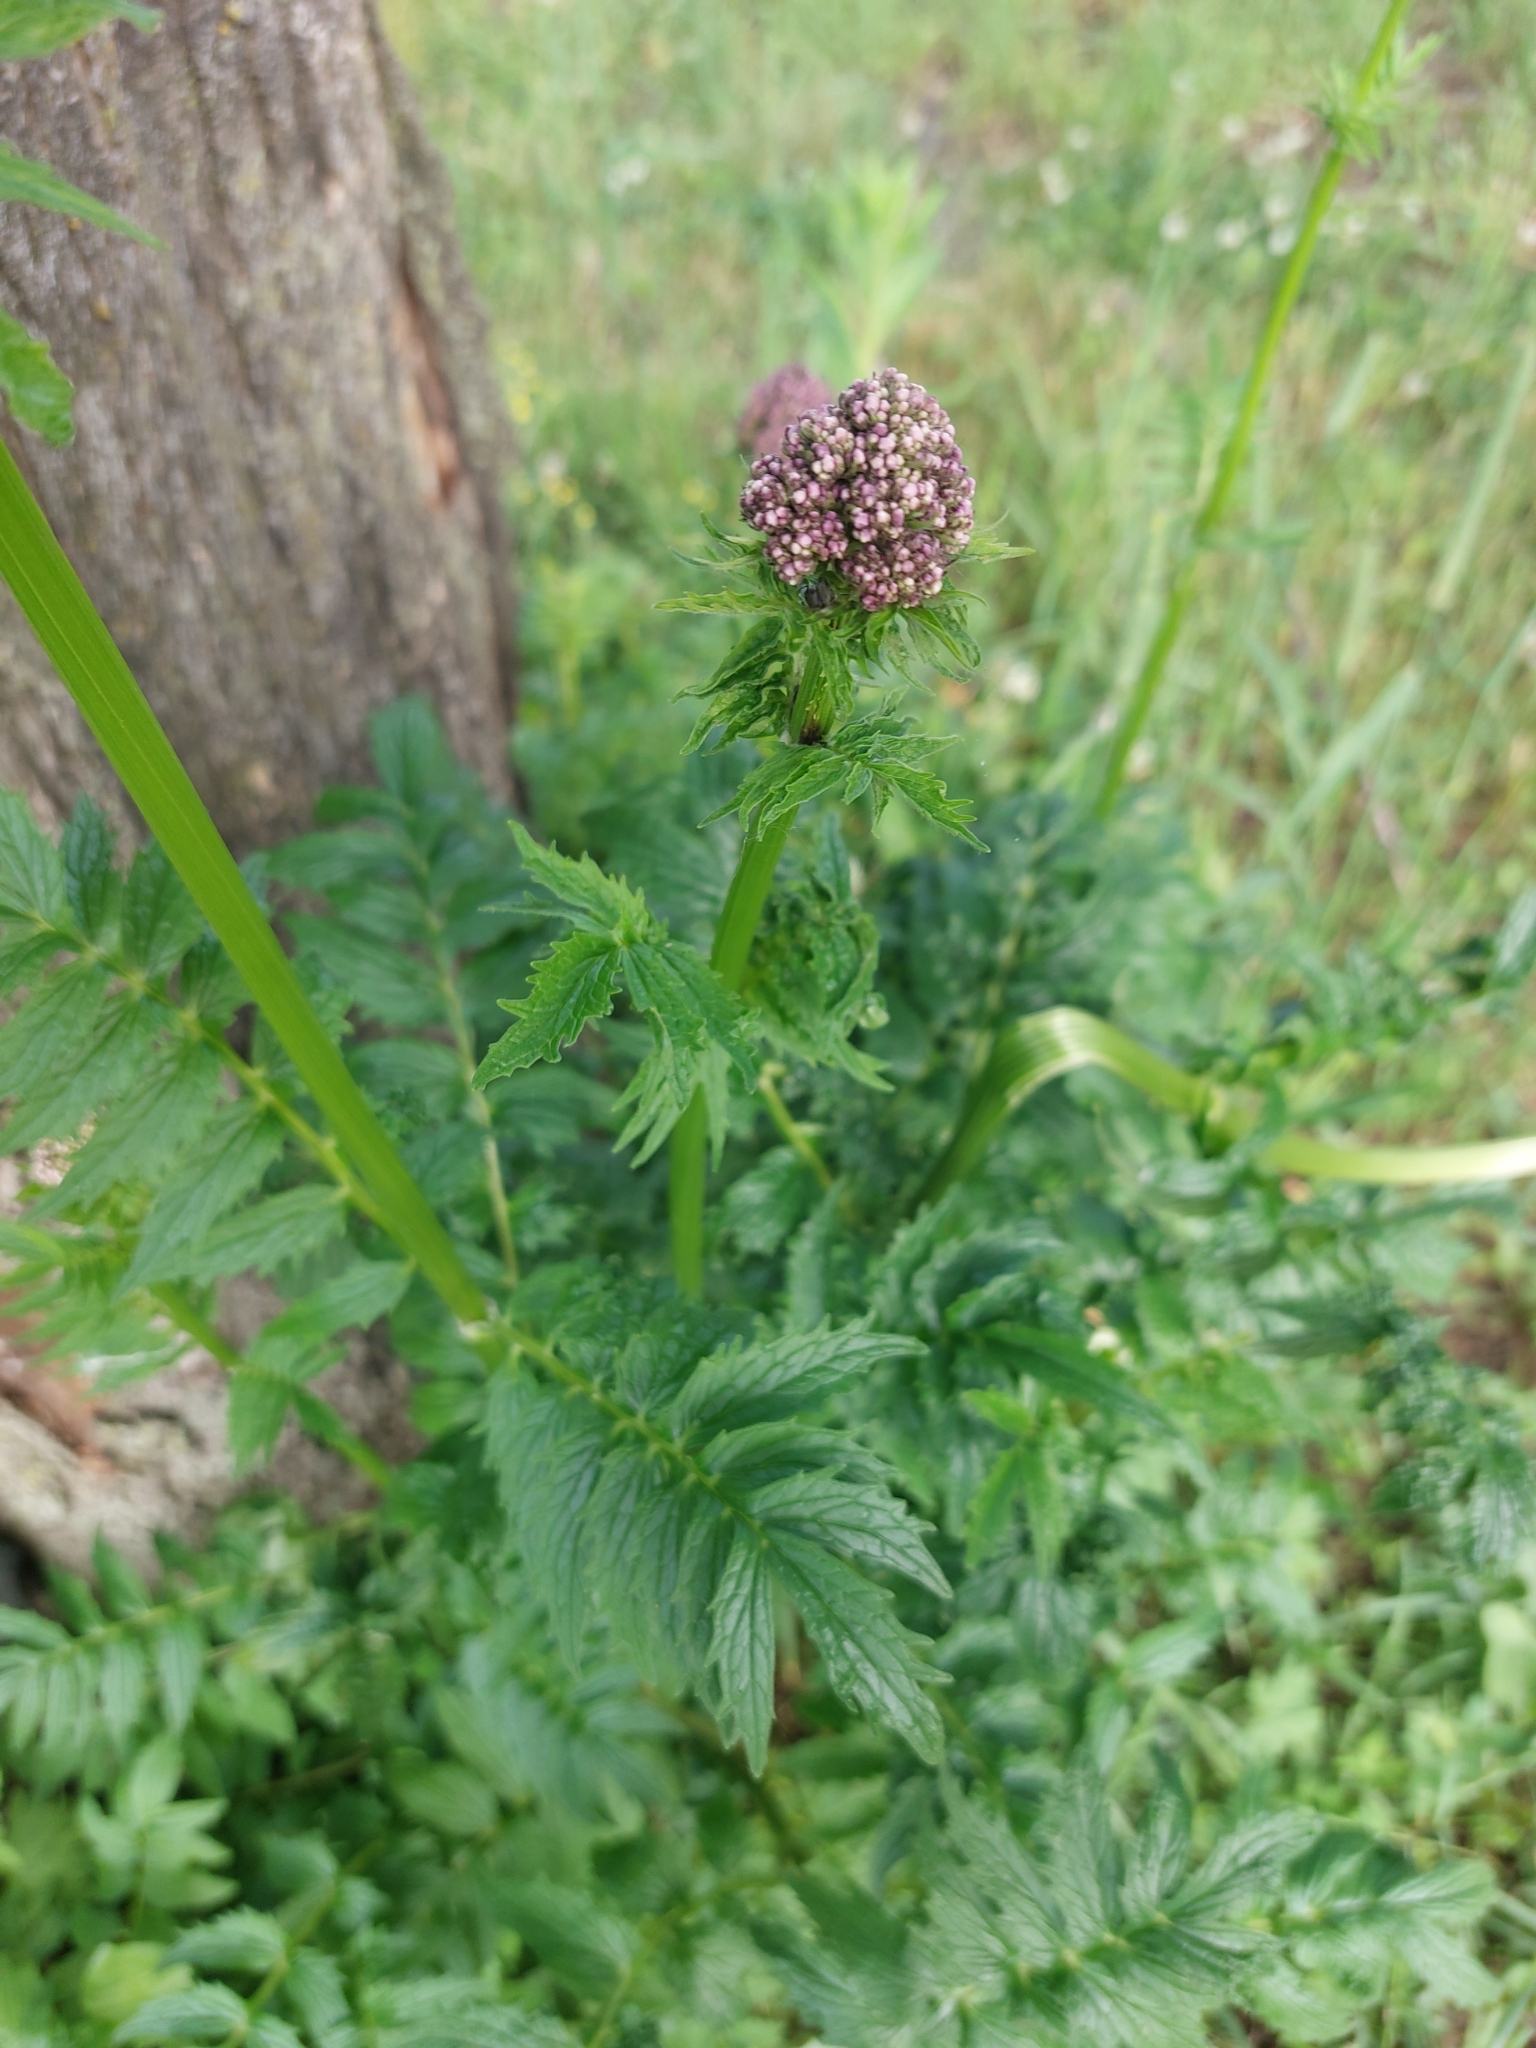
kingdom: Plantae
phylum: Tracheophyta
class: Magnoliopsida
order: Dipsacales
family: Caprifoliaceae
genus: Valeriana
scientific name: Valeriana officinalis
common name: Common valerian
